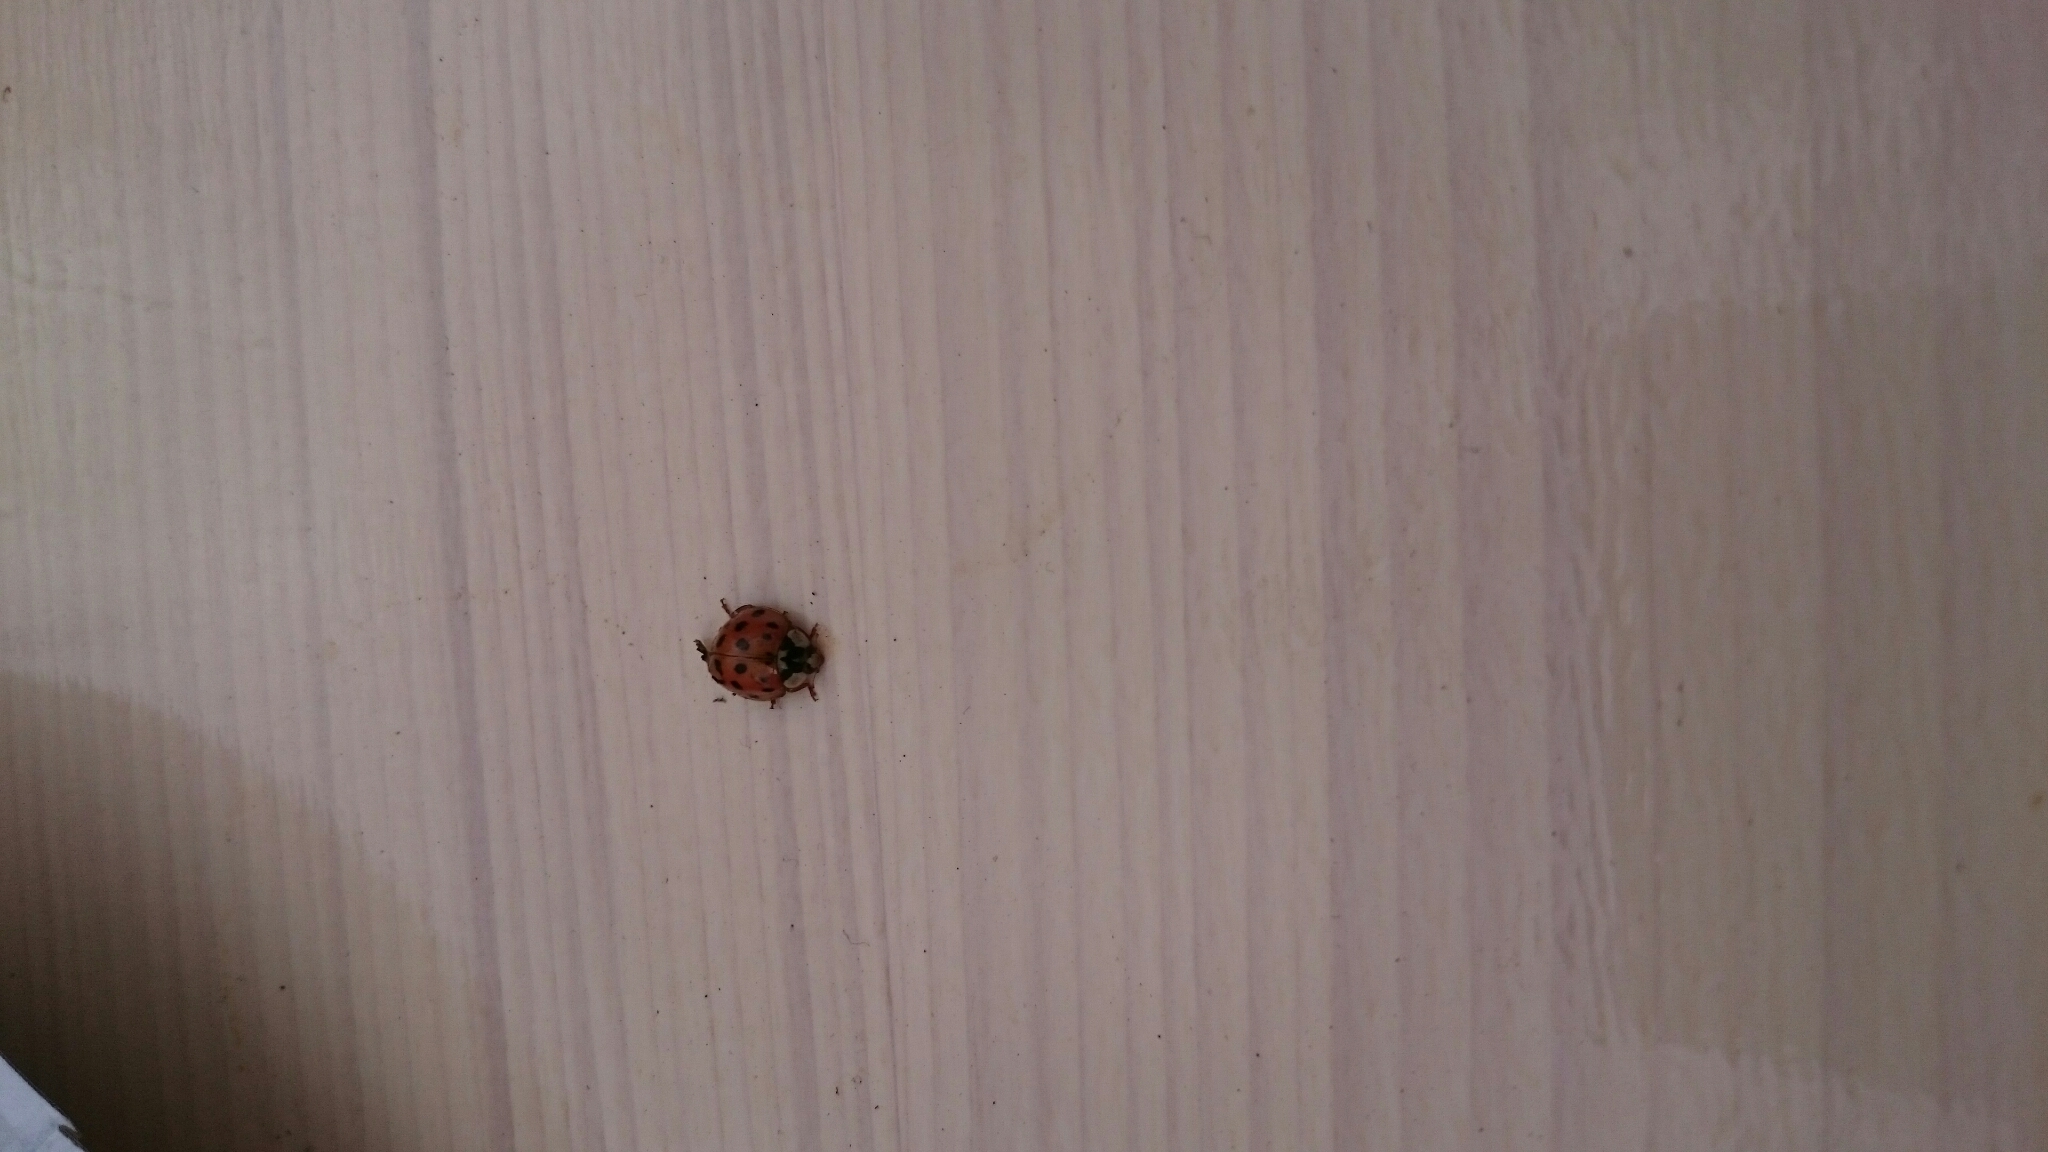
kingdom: Animalia
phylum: Arthropoda
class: Insecta
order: Coleoptera
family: Coccinellidae
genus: Harmonia
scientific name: Harmonia axyridis
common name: Harlequin ladybird
